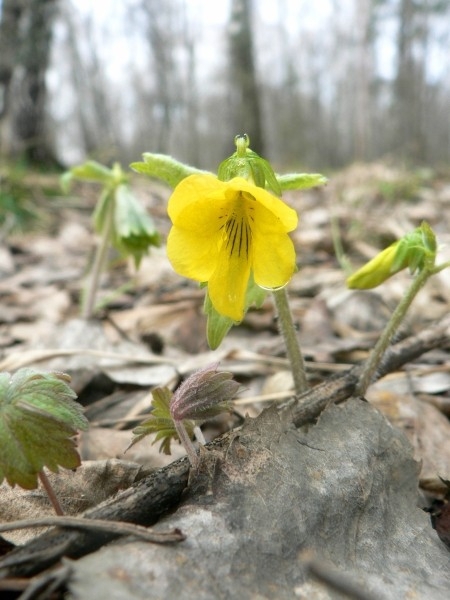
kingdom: Plantae
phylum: Tracheophyta
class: Magnoliopsida
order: Malpighiales
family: Violaceae
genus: Viola
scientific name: Viola uniflora
